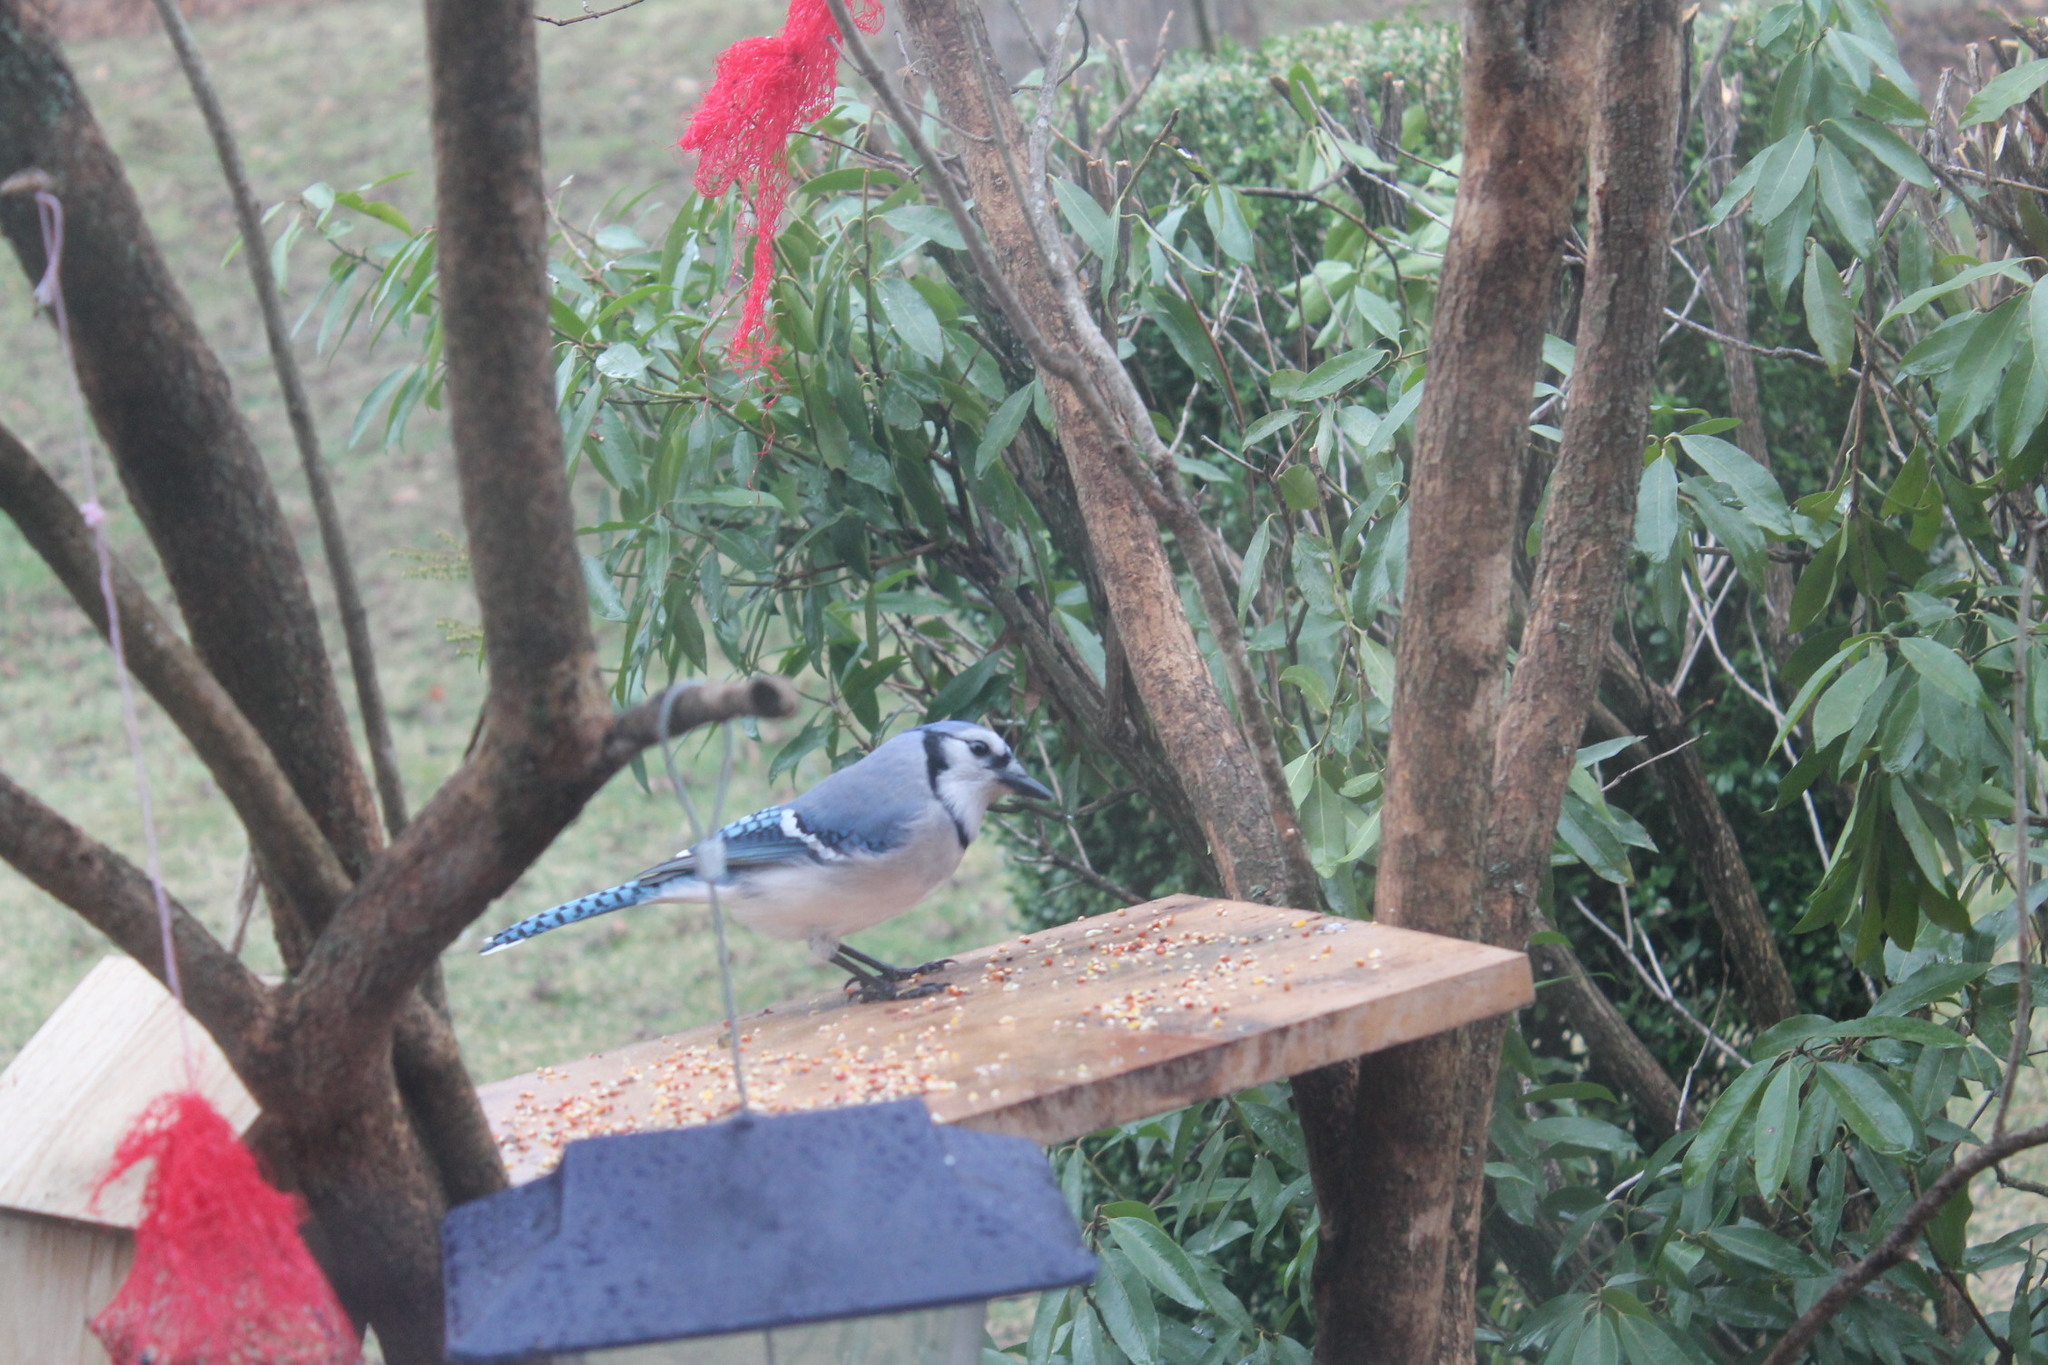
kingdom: Animalia
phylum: Chordata
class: Aves
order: Passeriformes
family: Corvidae
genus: Cyanocitta
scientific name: Cyanocitta cristata
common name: Blue jay
